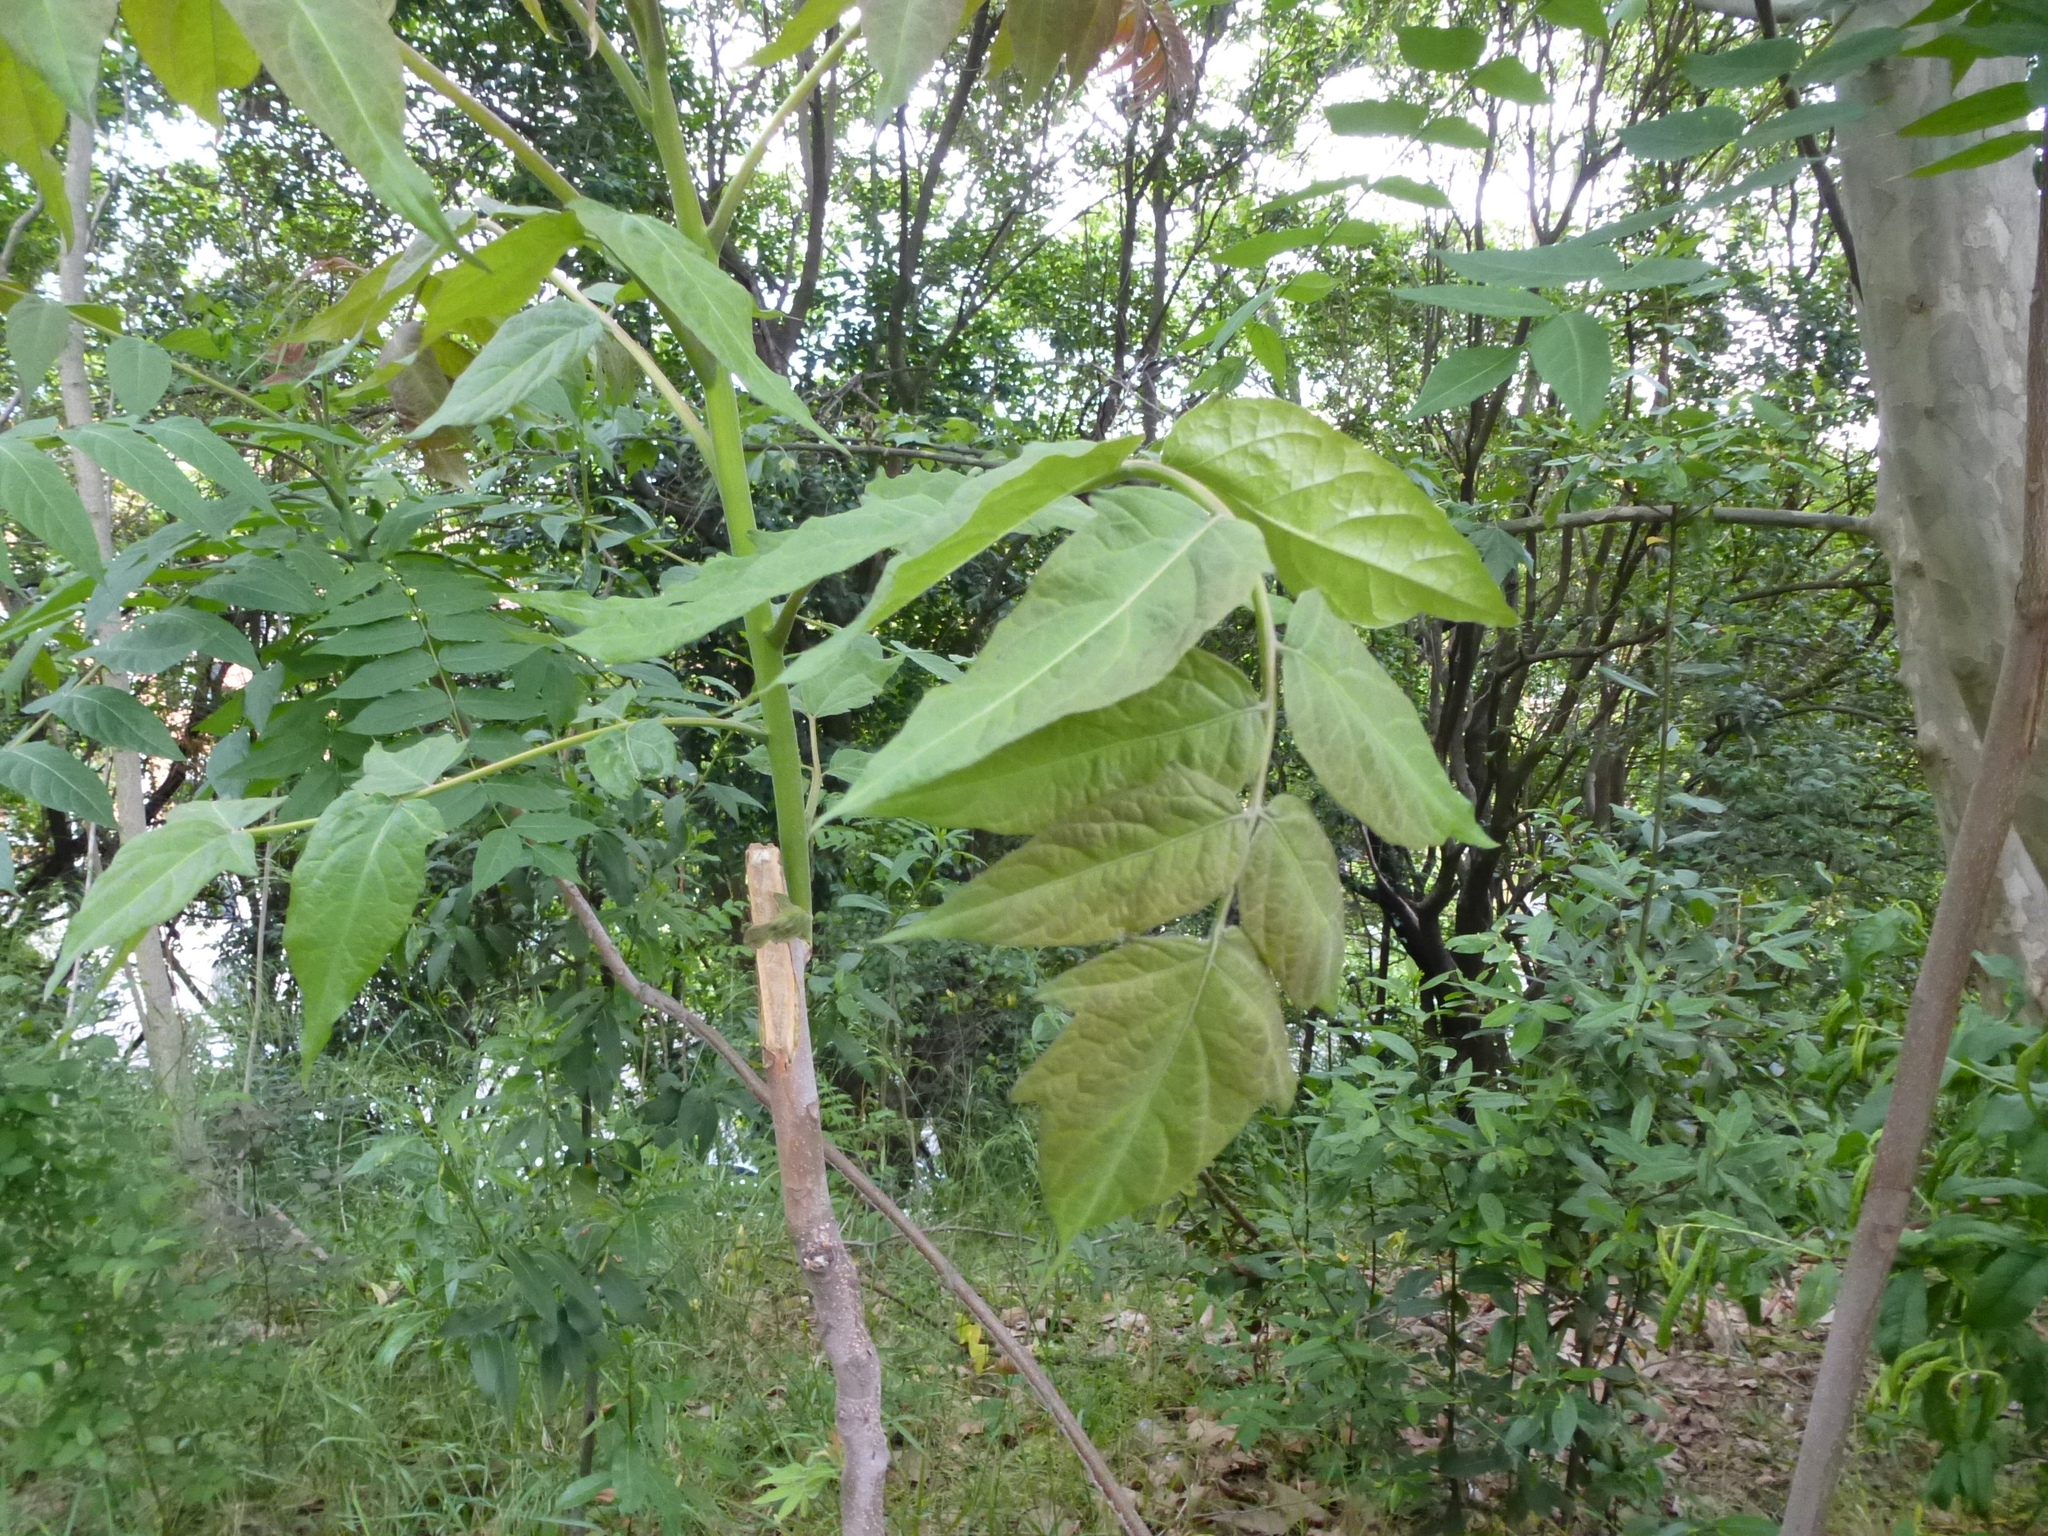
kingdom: Plantae
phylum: Tracheophyta
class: Magnoliopsida
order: Sapindales
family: Simaroubaceae
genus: Ailanthus
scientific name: Ailanthus altissima
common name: Tree-of-heaven
